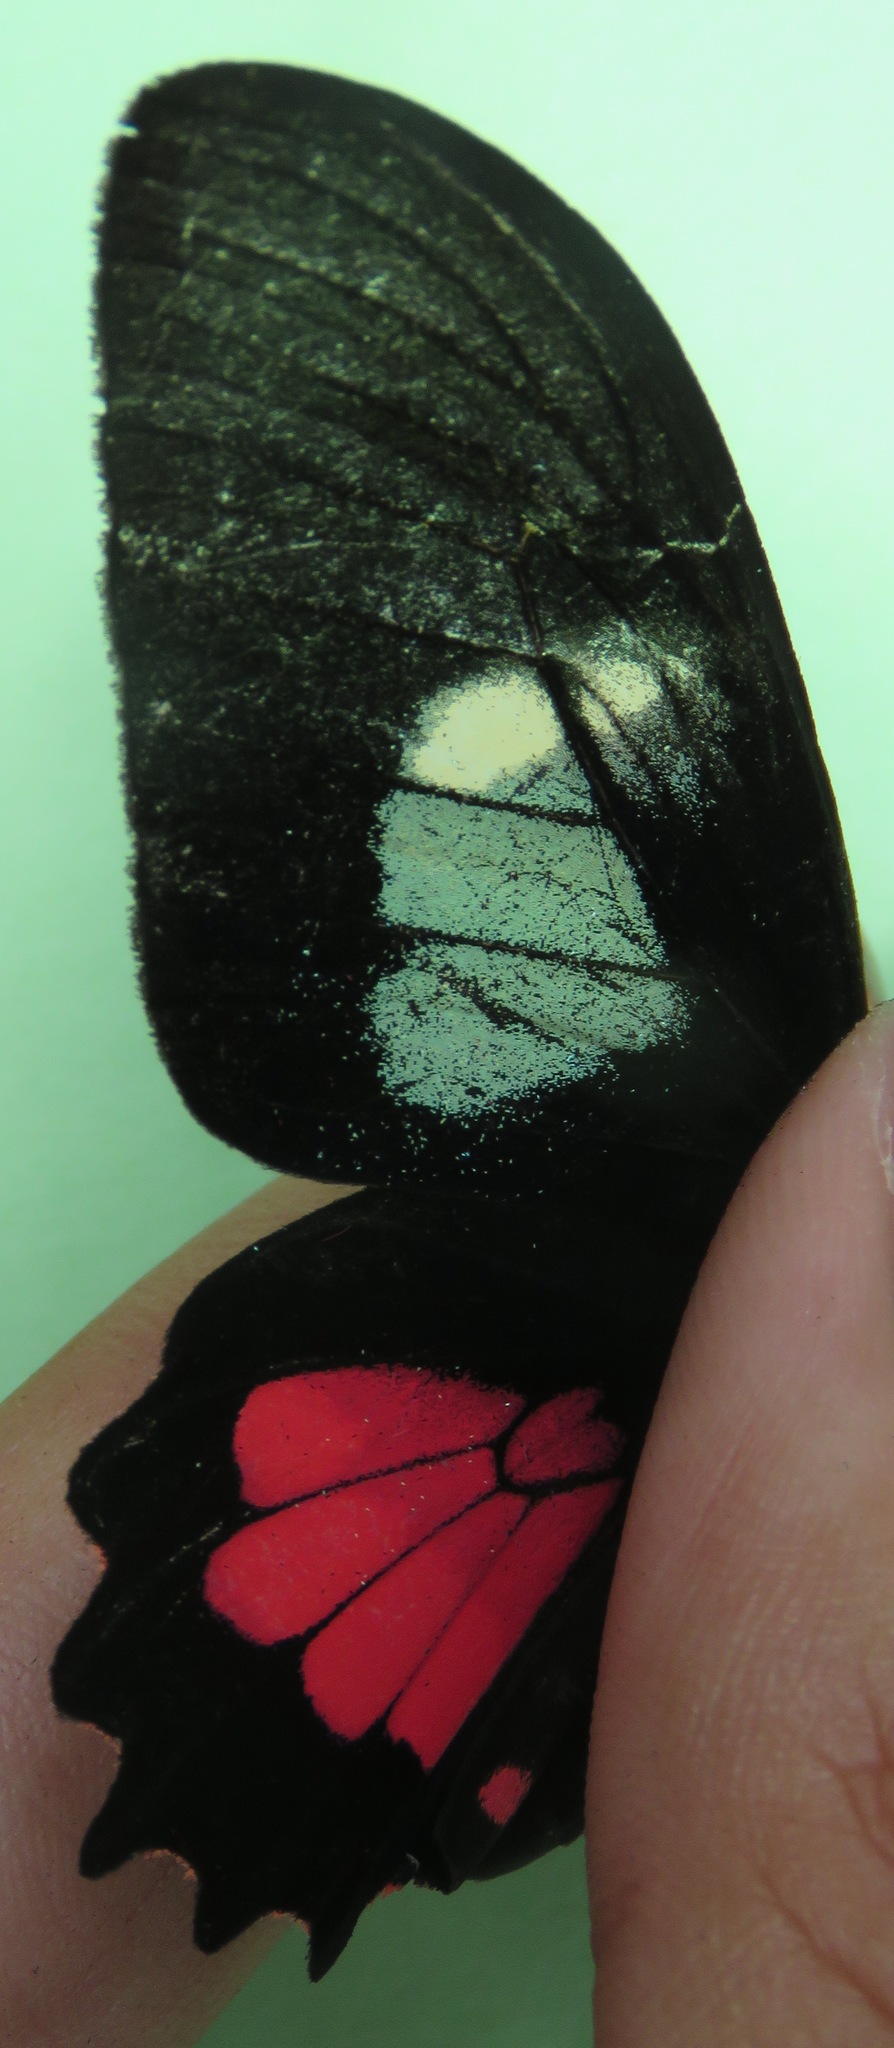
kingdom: Animalia
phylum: Arthropoda
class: Insecta
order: Lepidoptera
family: Papilionidae
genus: Parides
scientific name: Parides eurimedes
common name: True cattleheart
